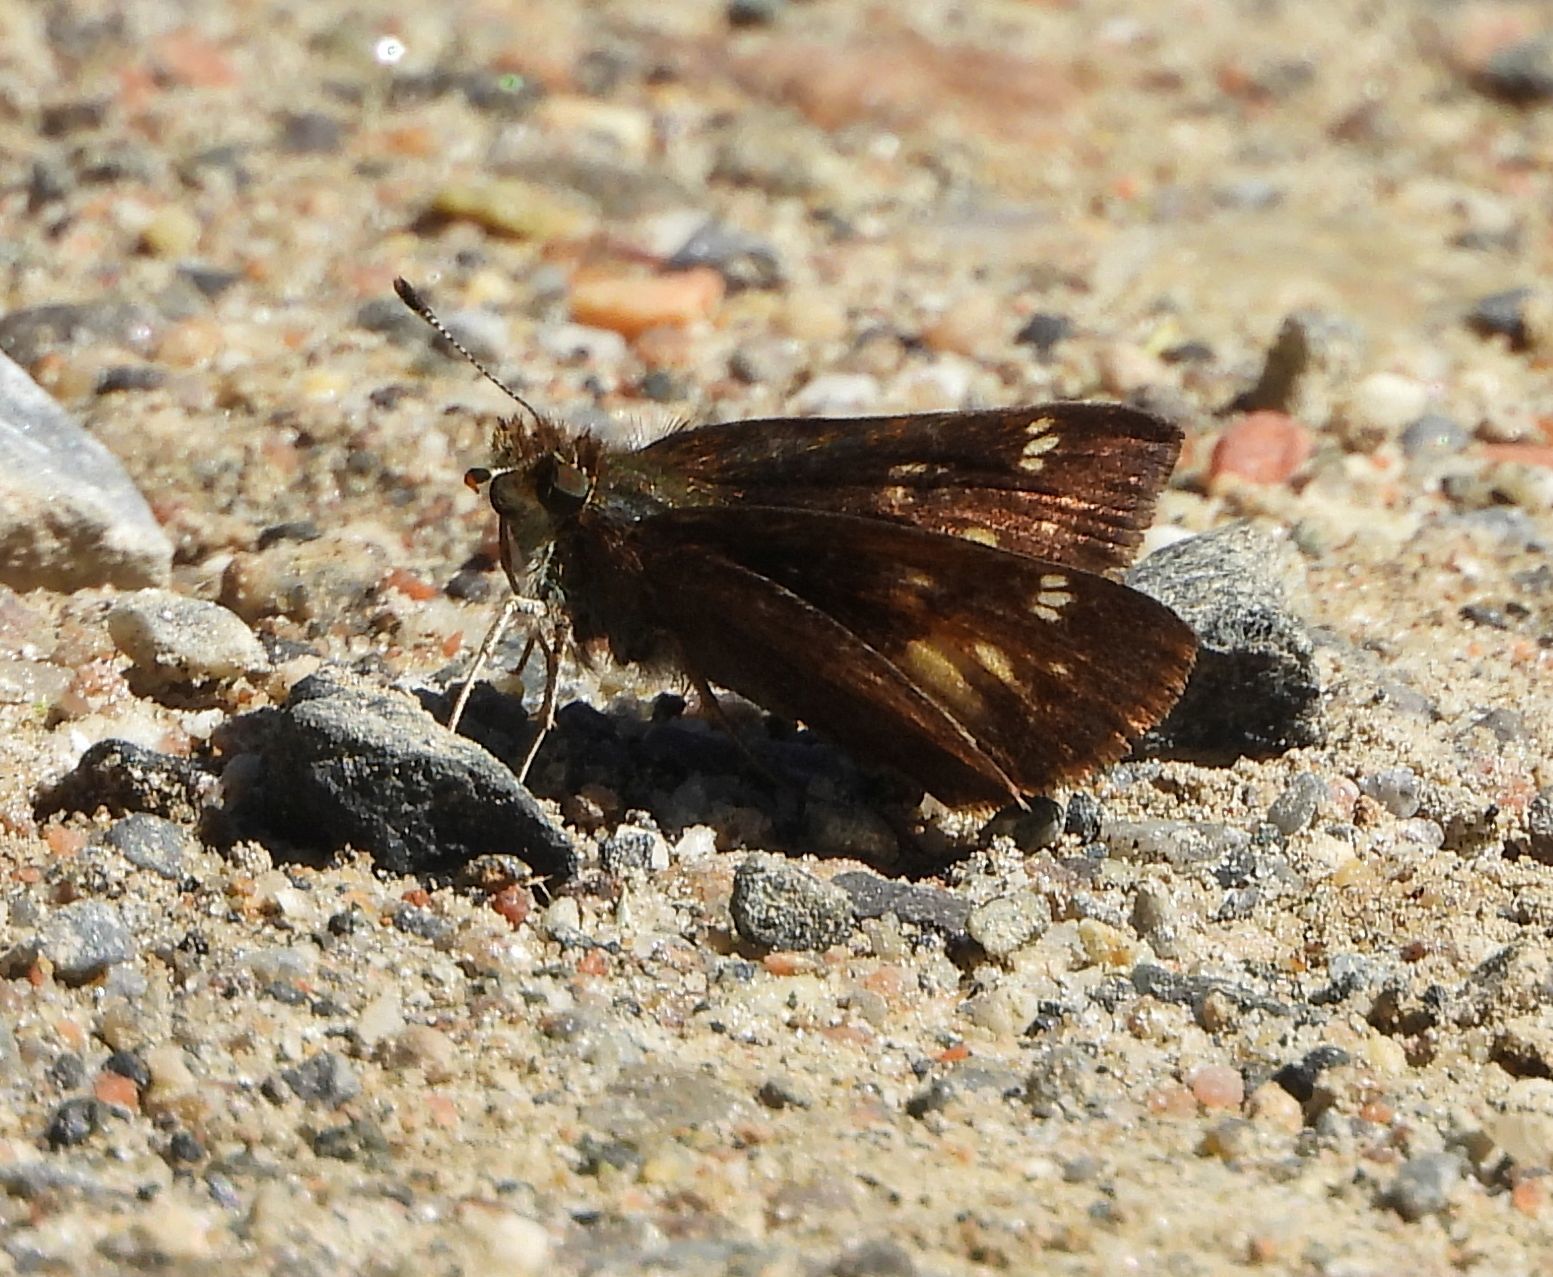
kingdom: Animalia
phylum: Arthropoda
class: Insecta
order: Lepidoptera
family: Hesperiidae
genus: Lon
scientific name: Lon hobomok
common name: Hobomok skipper
